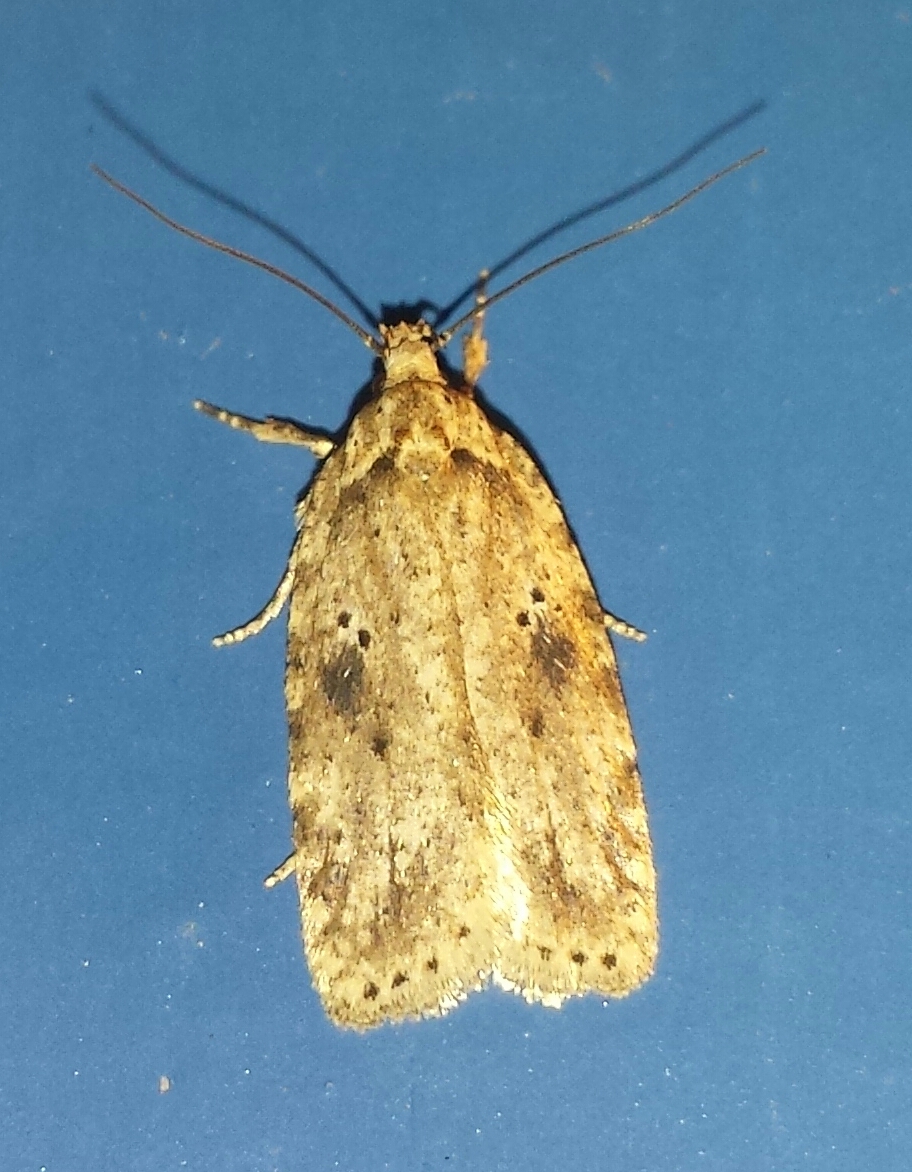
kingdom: Animalia
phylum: Arthropoda
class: Insecta
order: Lepidoptera
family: Depressariidae
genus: Agonopterix
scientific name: Agonopterix canadensis
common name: Canadian agonopterix moth
